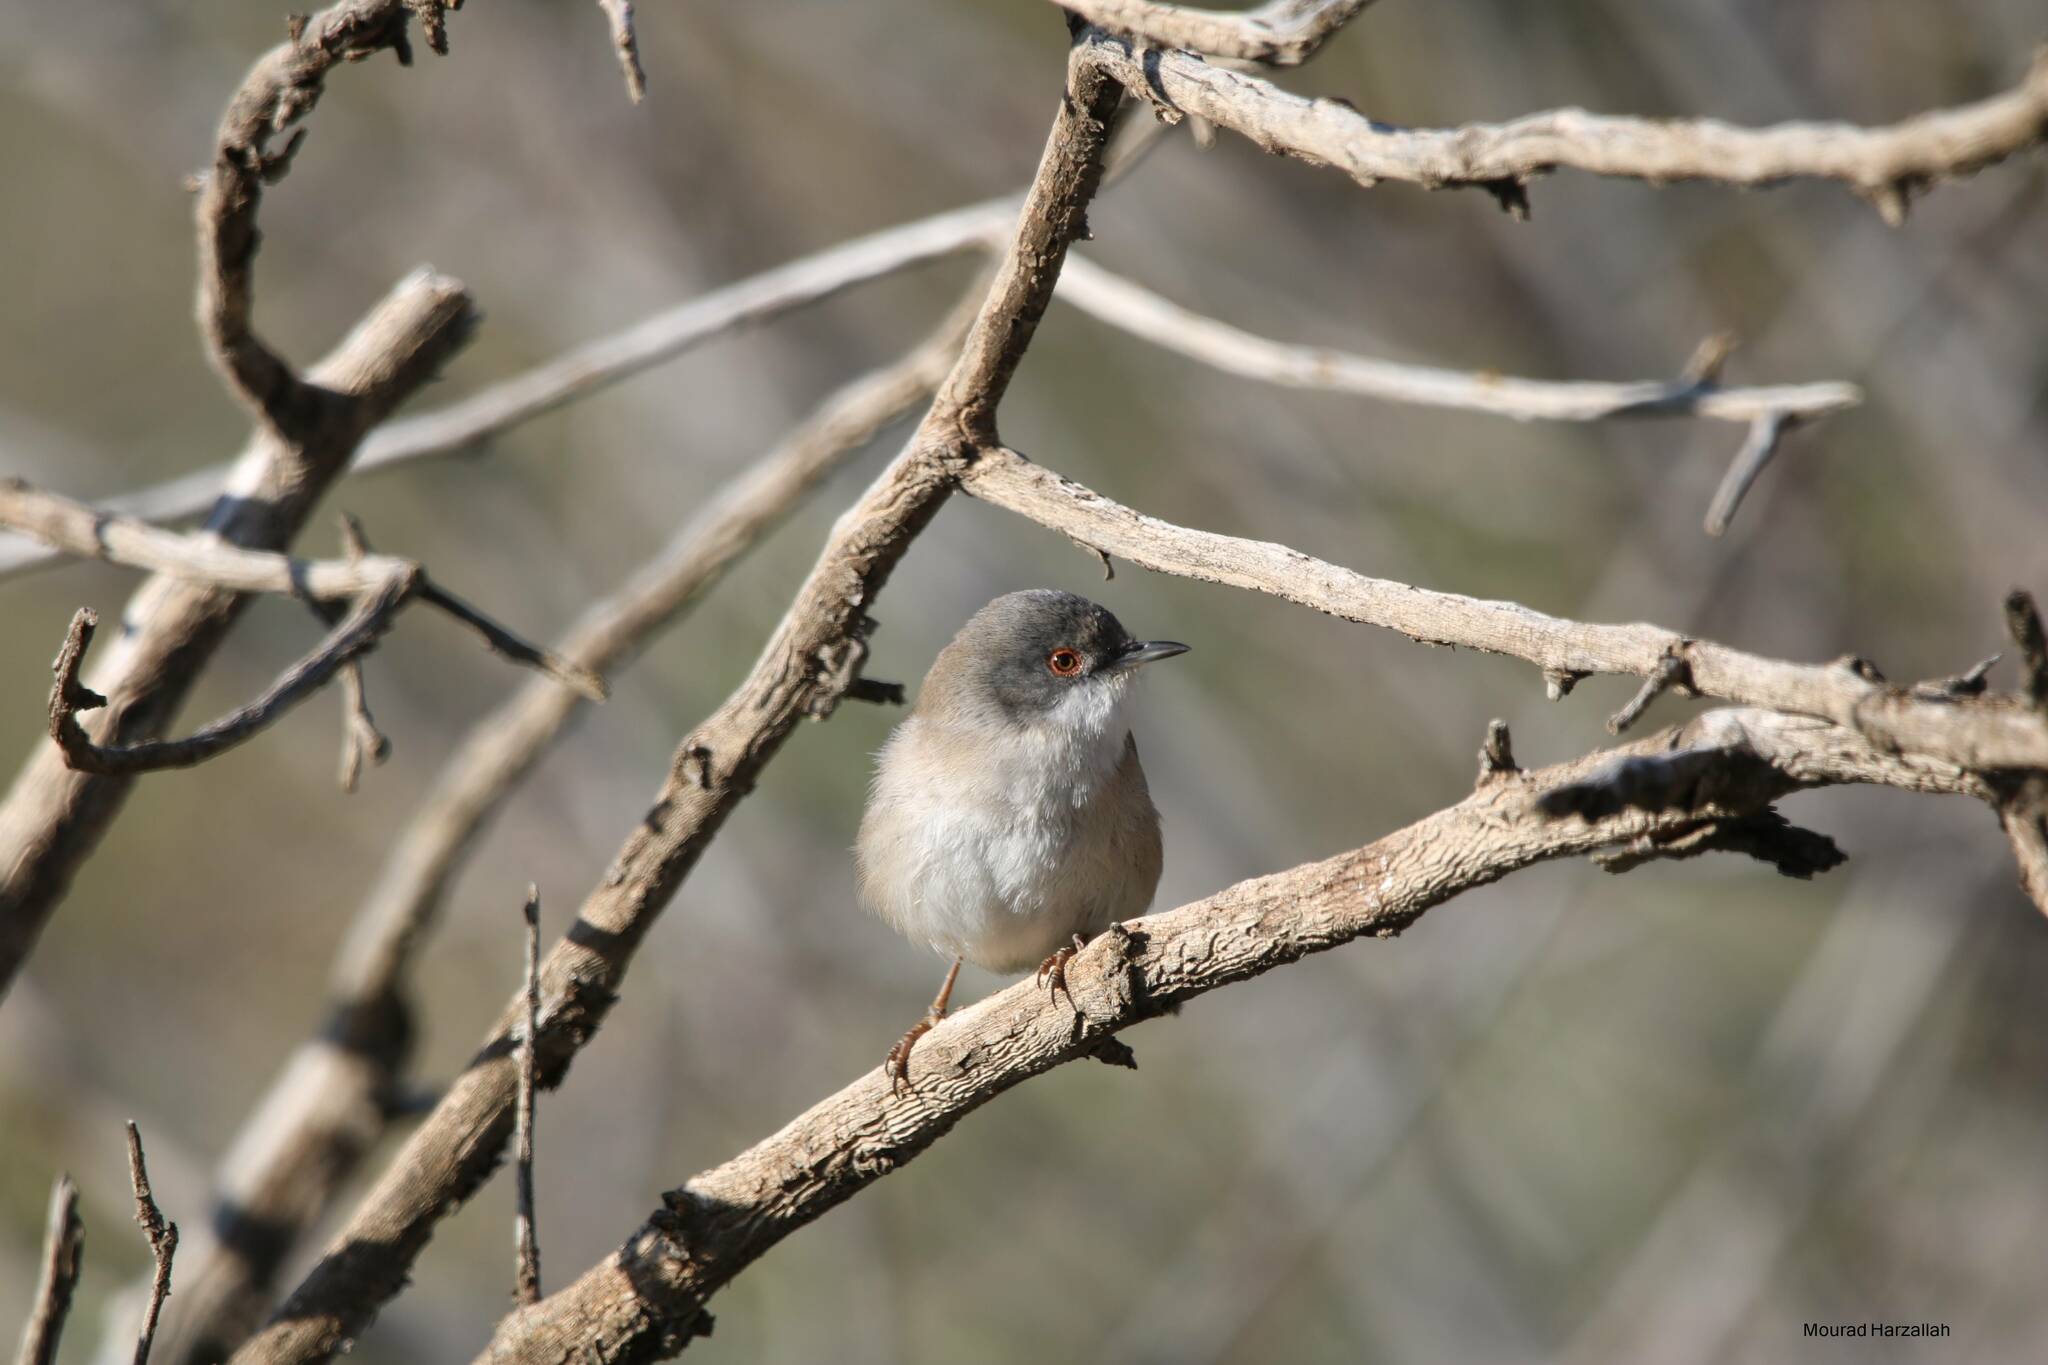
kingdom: Animalia
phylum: Chordata
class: Aves
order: Passeriformes
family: Sylviidae
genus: Curruca
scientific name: Curruca melanocephala
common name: Sardinian warbler
